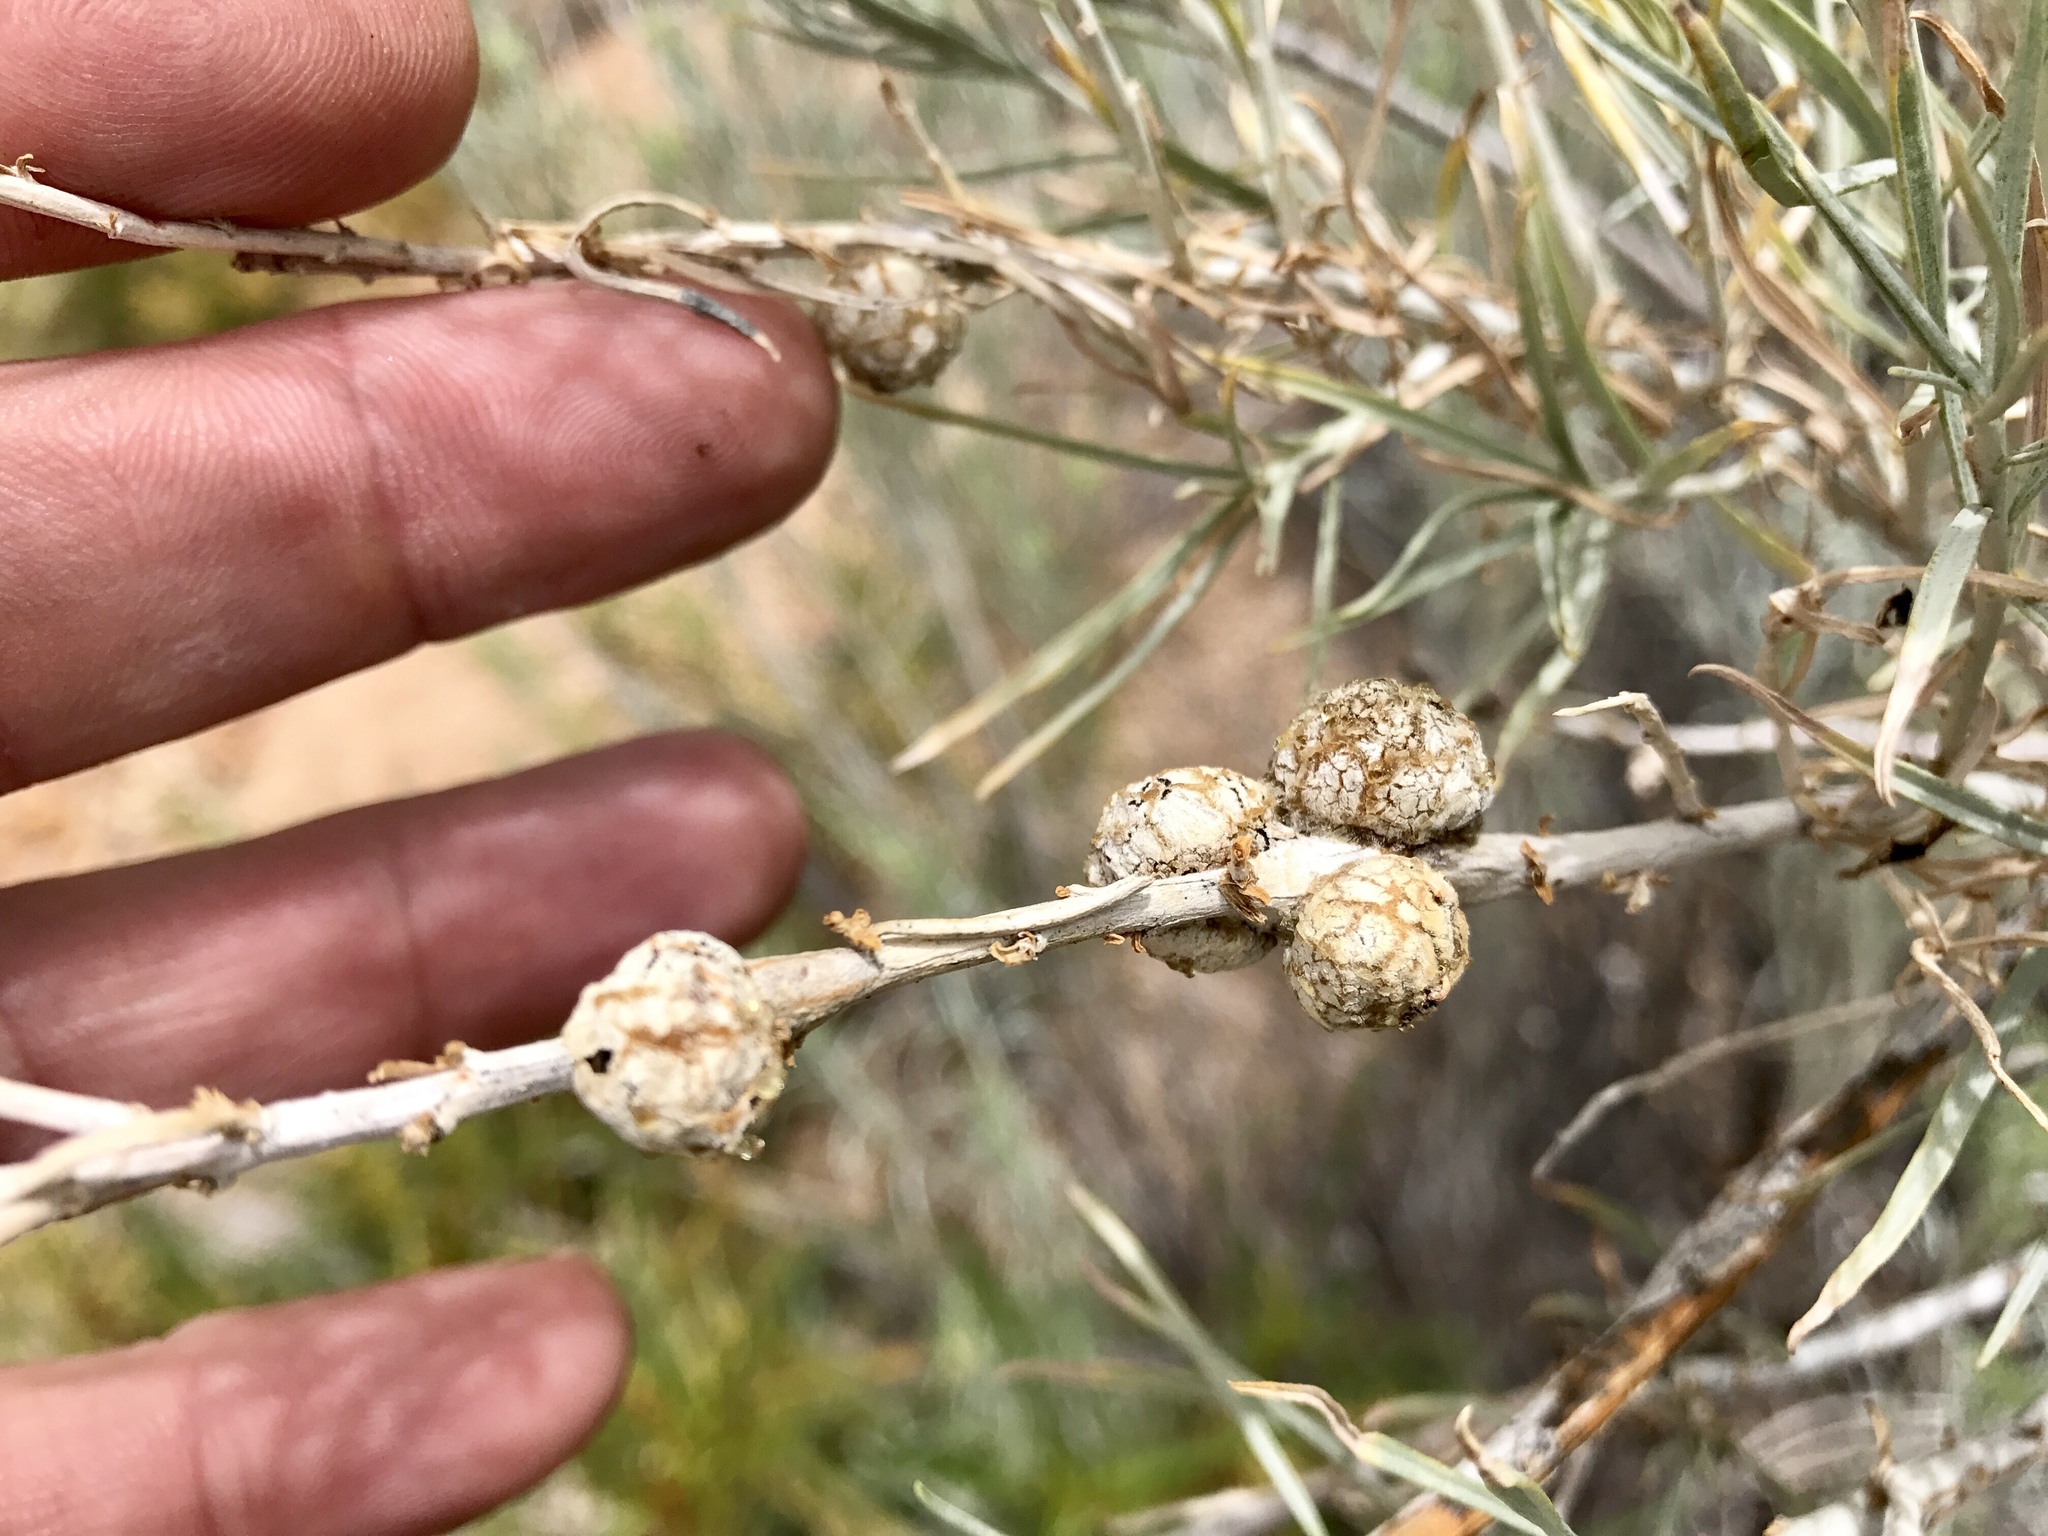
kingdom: Animalia
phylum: Arthropoda
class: Insecta
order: Diptera
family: Cecidomyiidae
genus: Rabdophaga
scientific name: Rabdophaga strobiloides
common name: Willow pinecone gall midge
